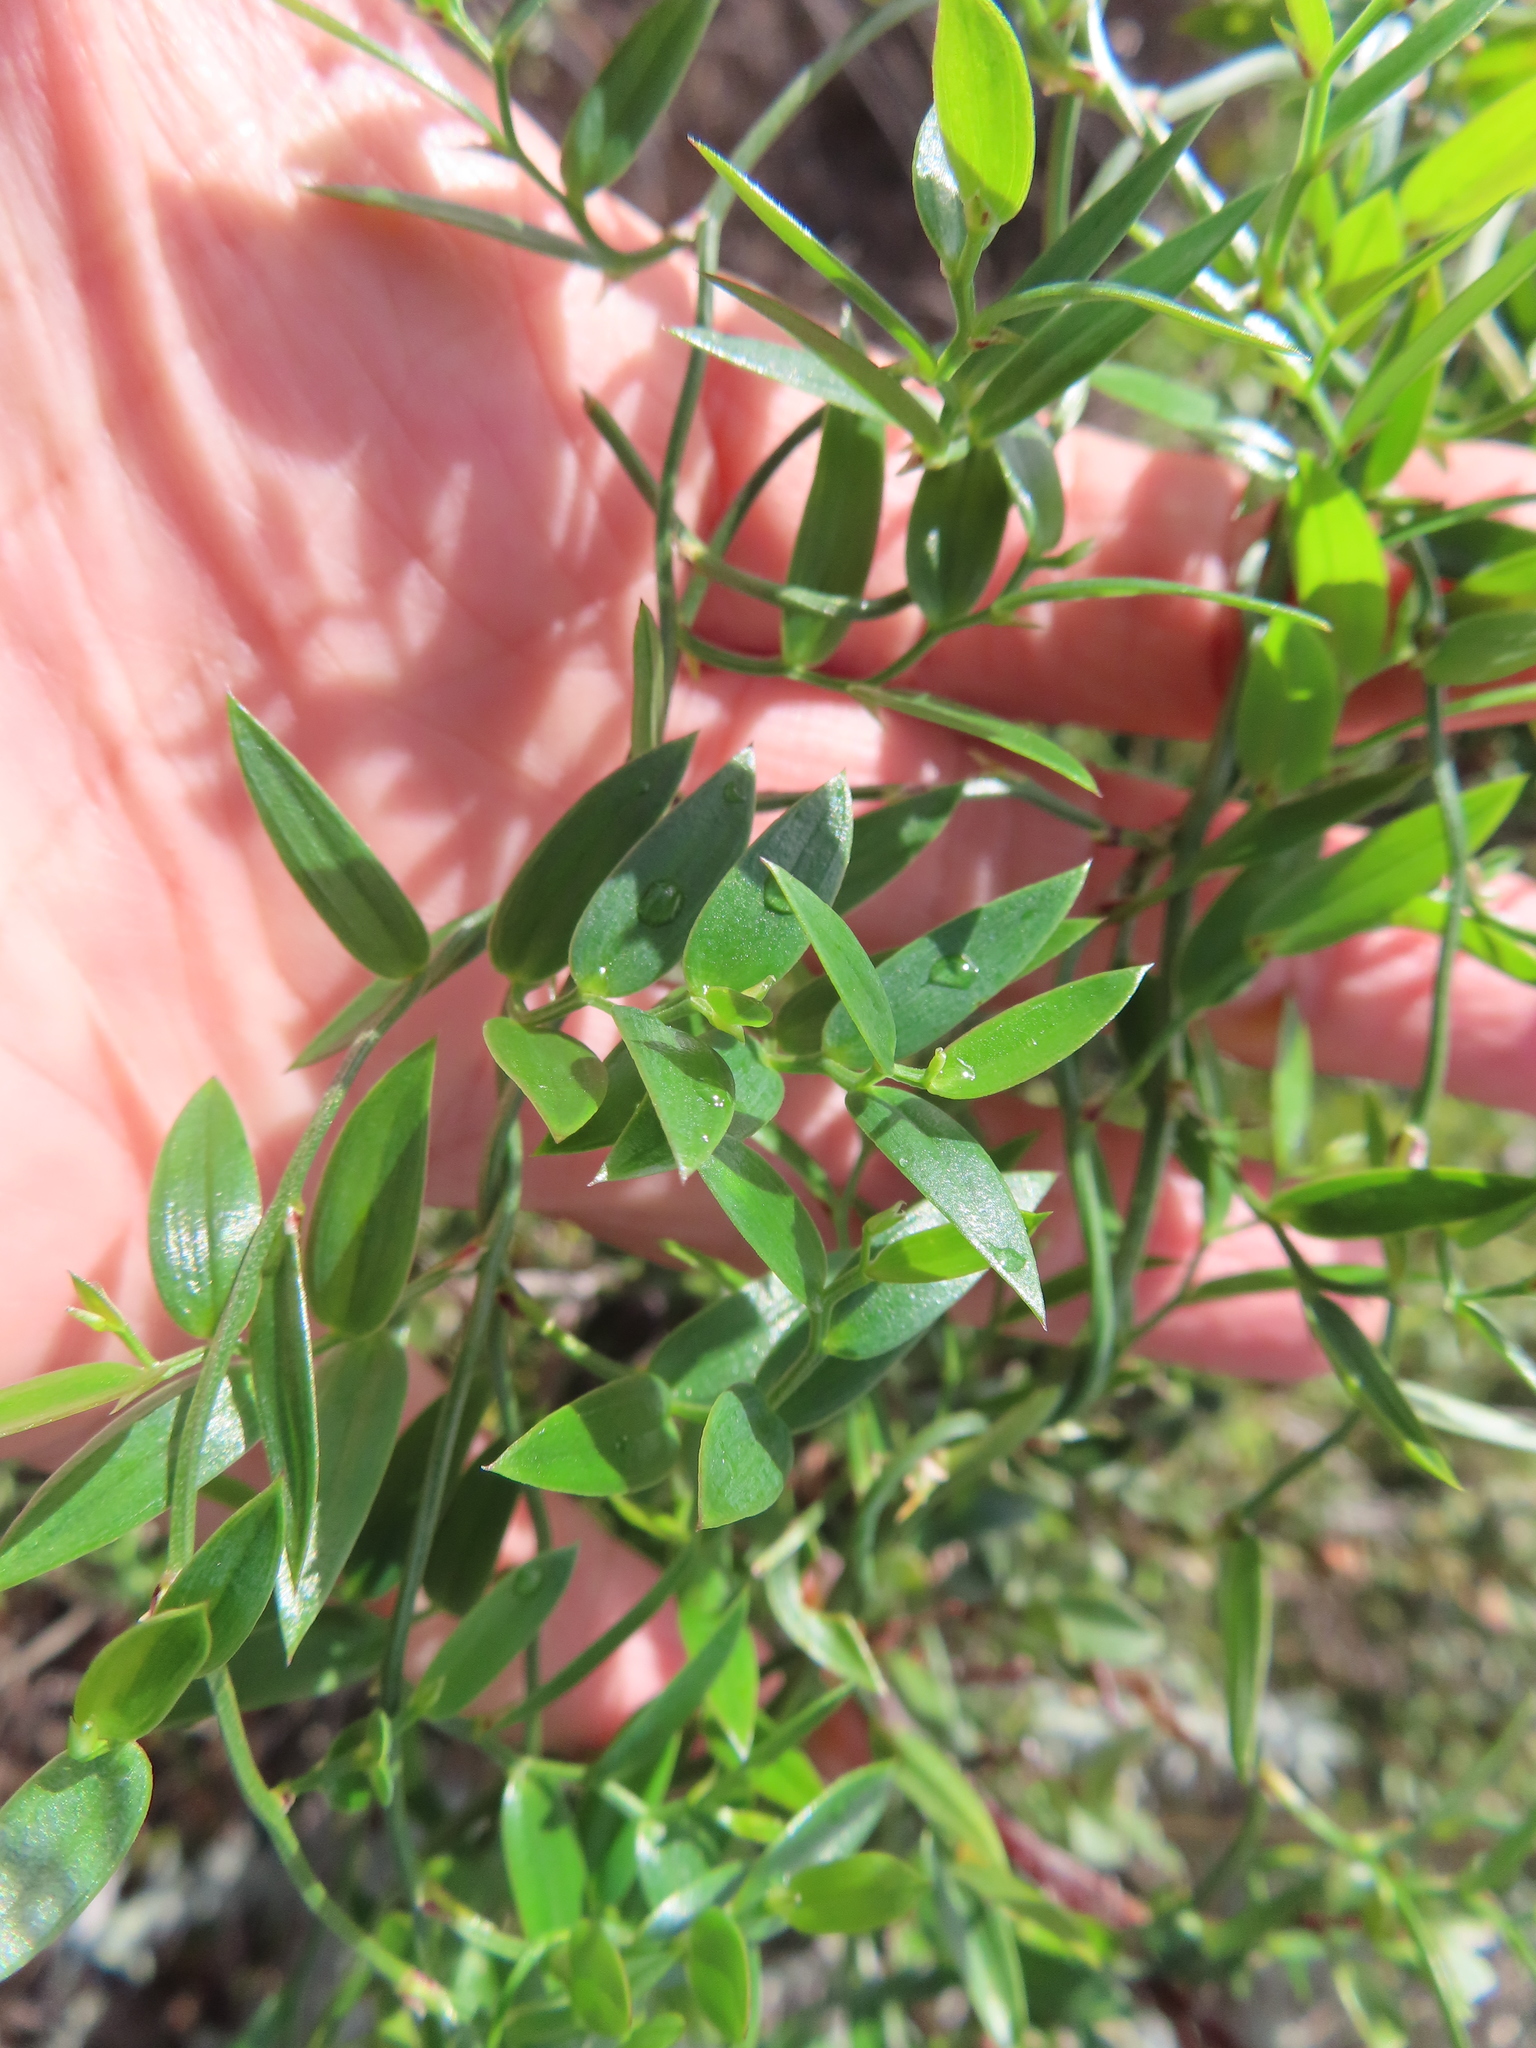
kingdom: Plantae
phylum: Tracheophyta
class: Liliopsida
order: Asparagales
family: Asparagaceae
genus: Asparagus
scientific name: Asparagus asparagoides
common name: African asparagus fern
